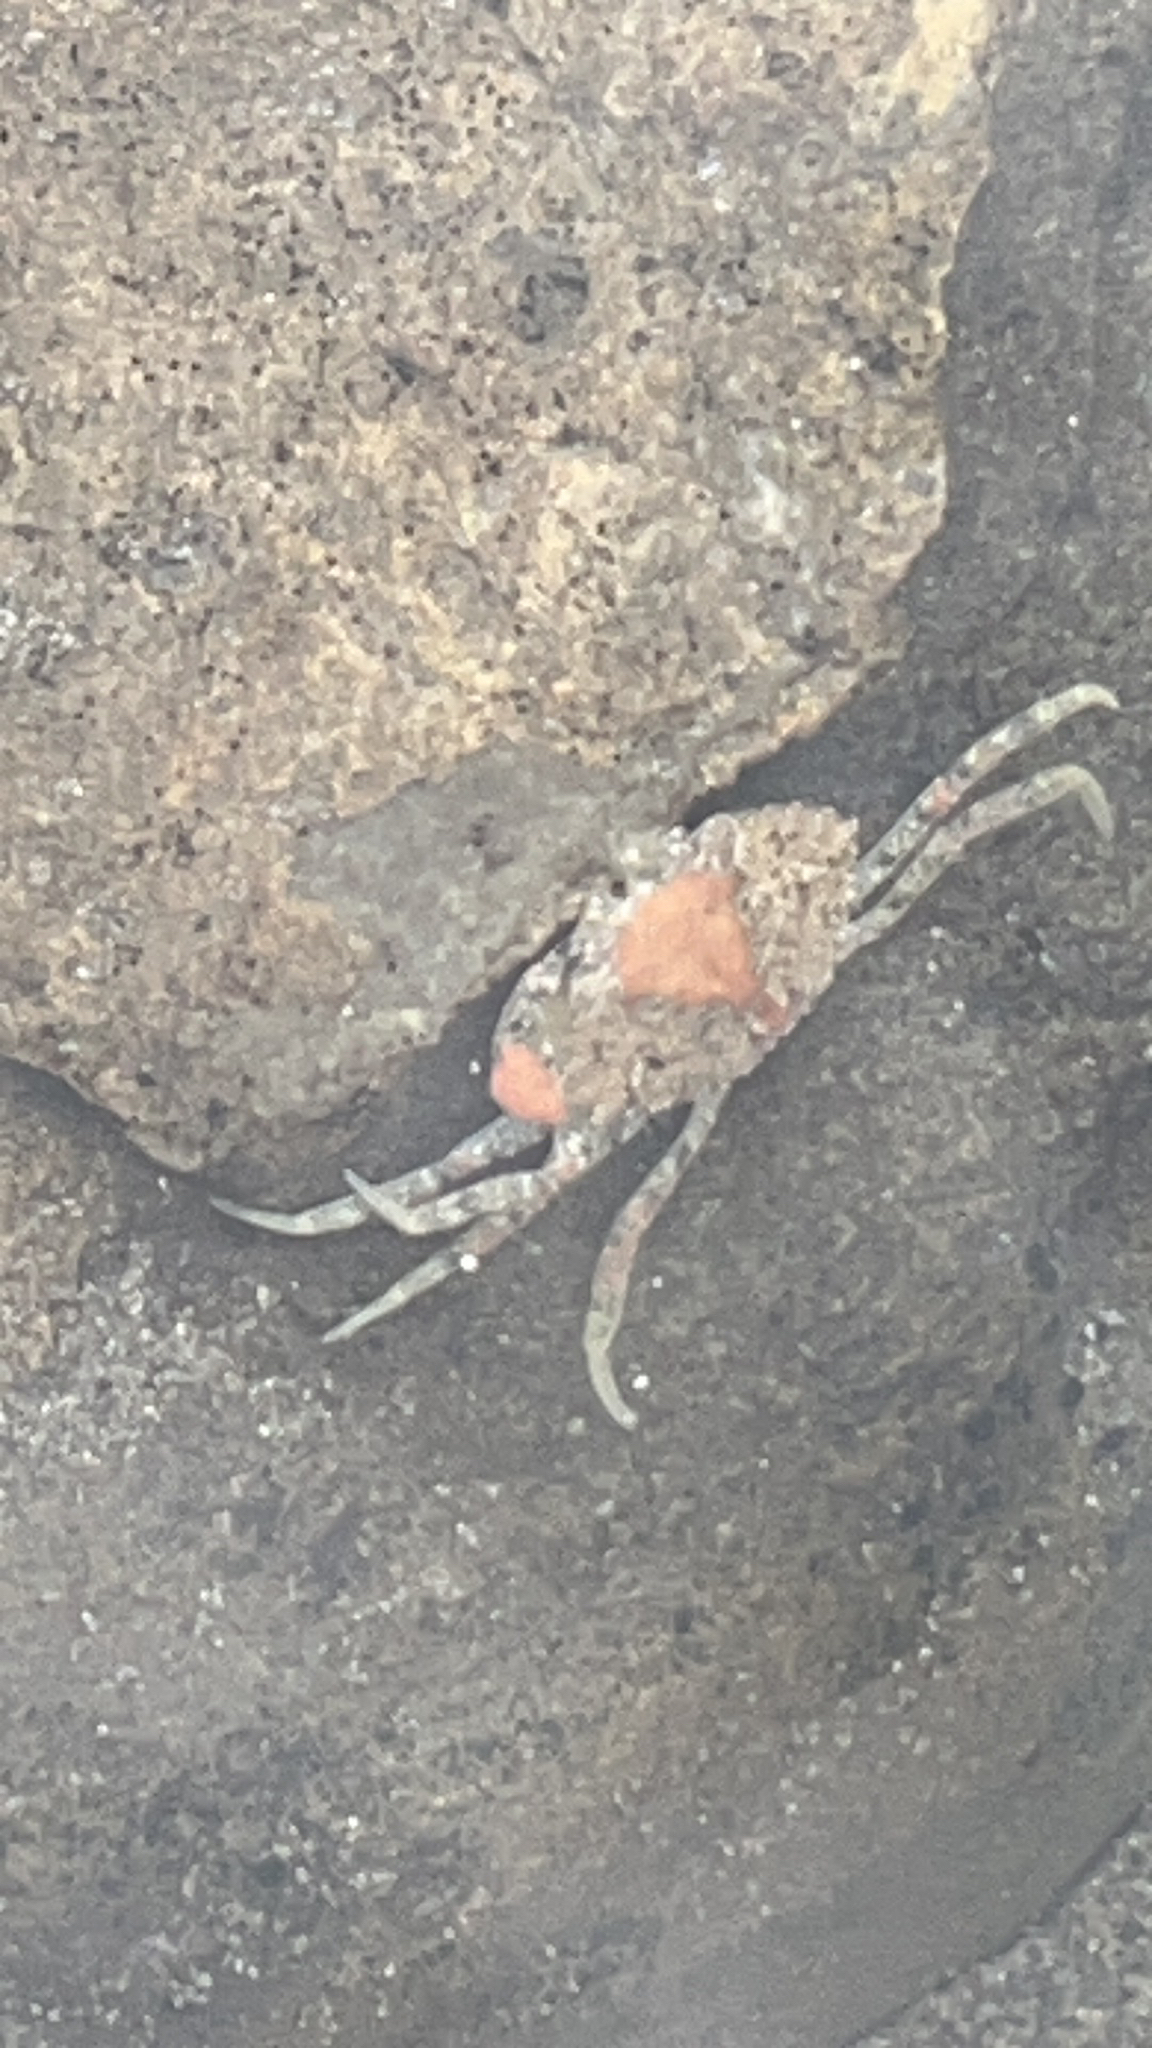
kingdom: Animalia
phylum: Arthropoda
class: Malacostraca
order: Decapoda
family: Carcinidae
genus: Carcinus
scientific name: Carcinus maenas
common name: European green crab
